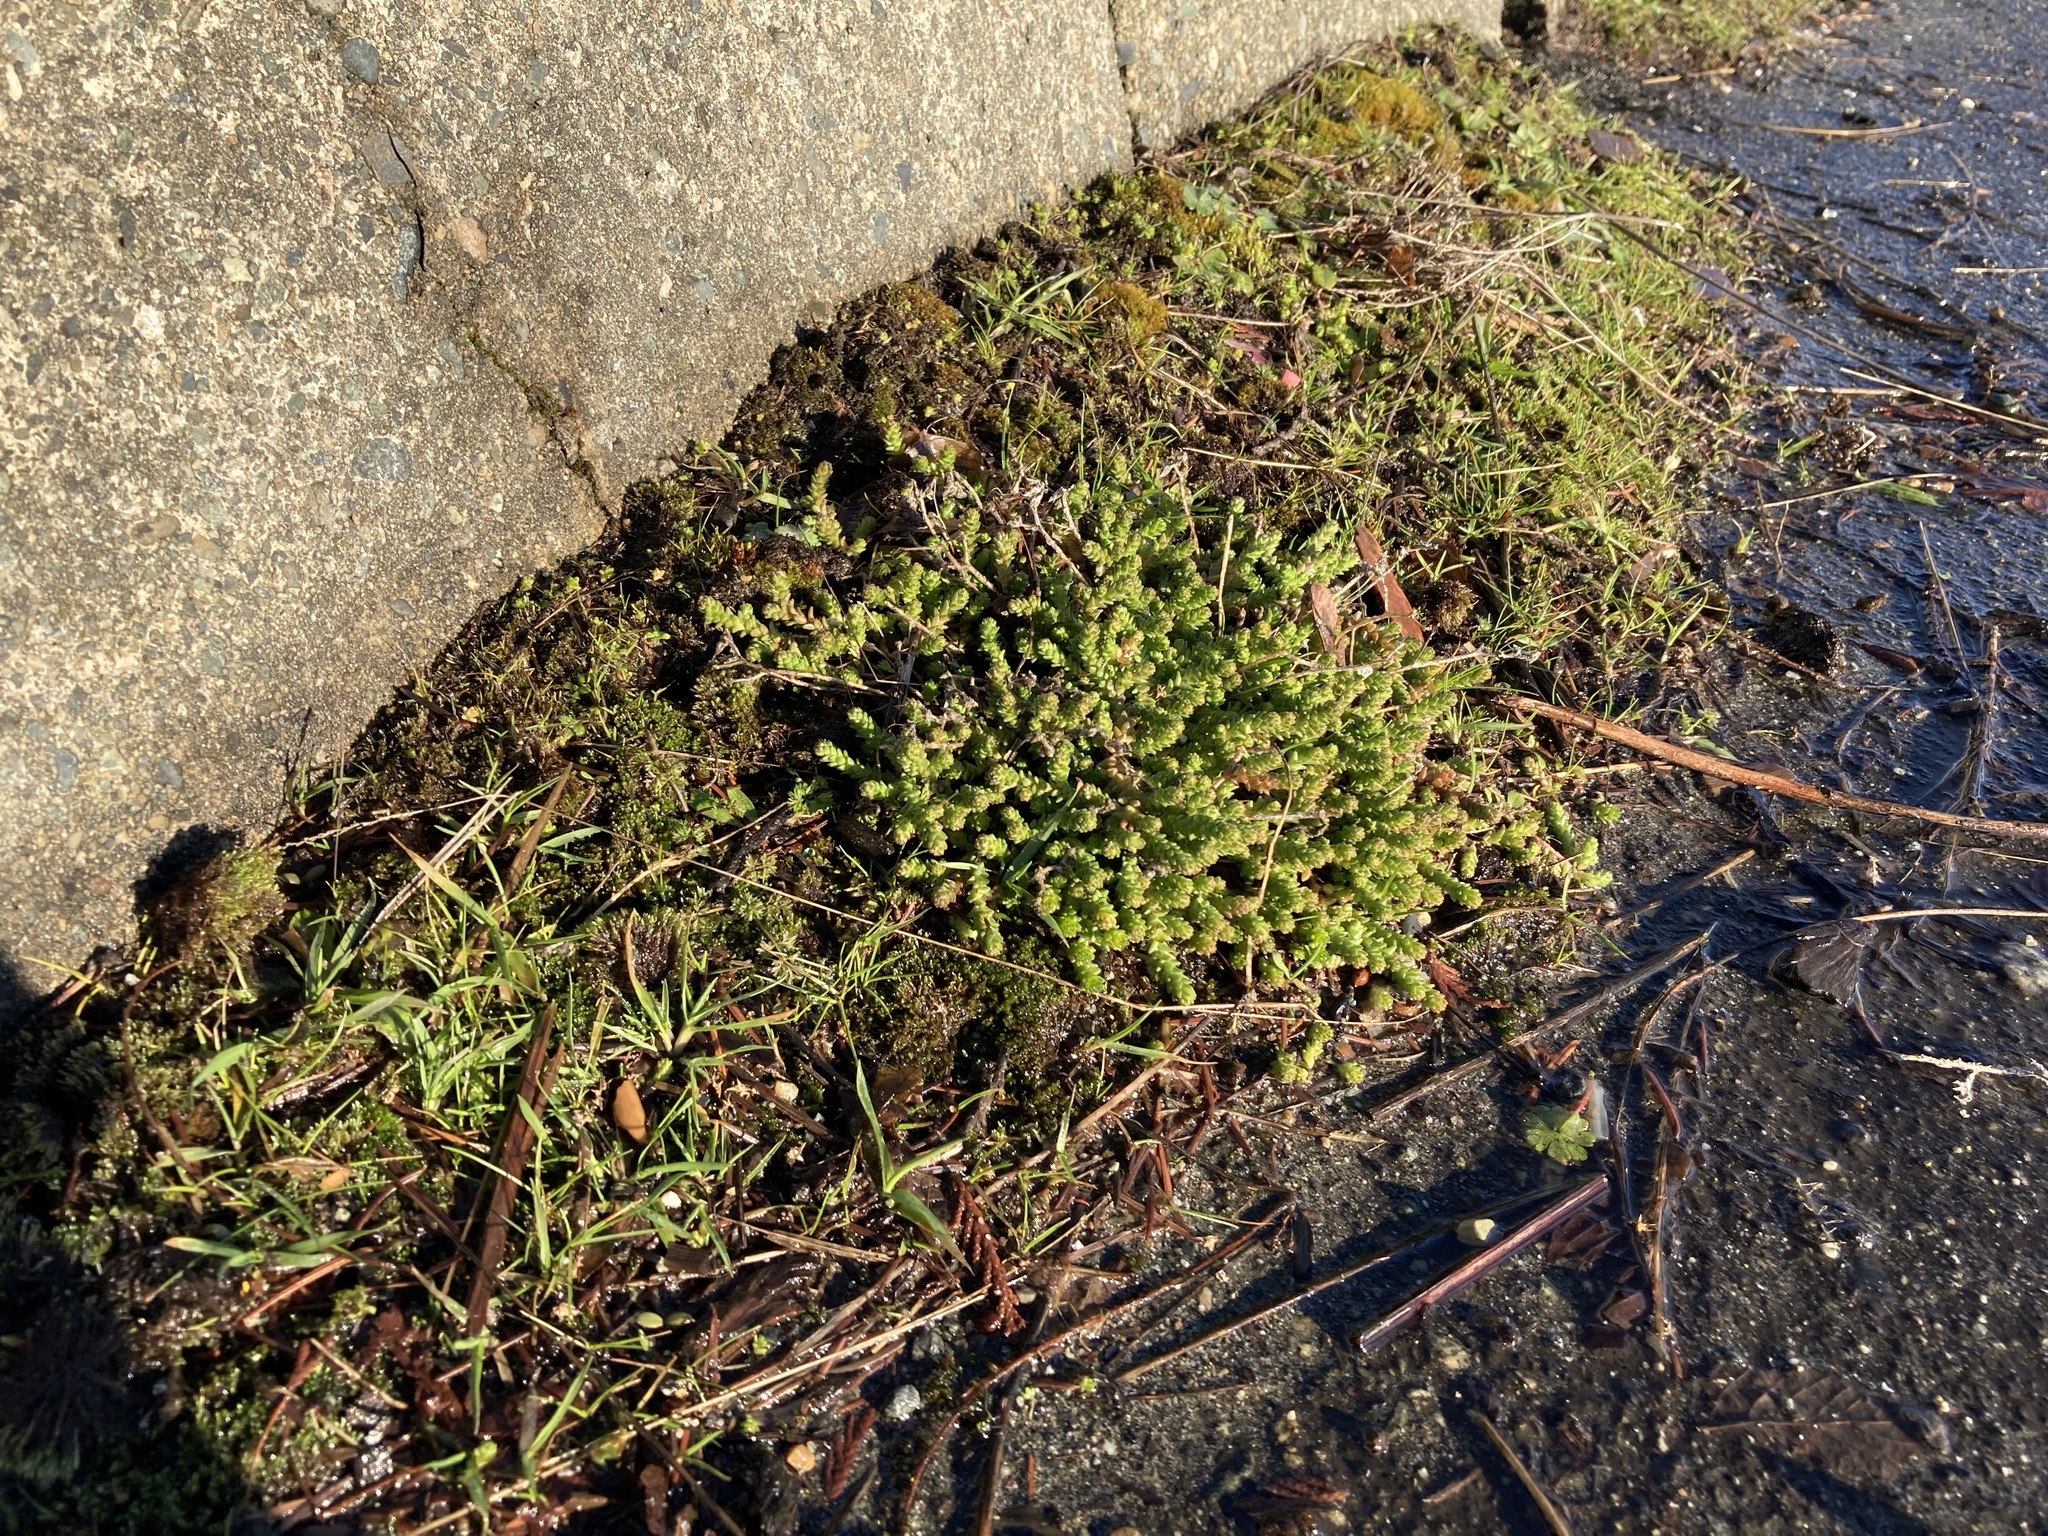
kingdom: Plantae
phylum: Tracheophyta
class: Magnoliopsida
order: Saxifragales
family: Crassulaceae
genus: Sedum
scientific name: Sedum acre
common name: Biting stonecrop
